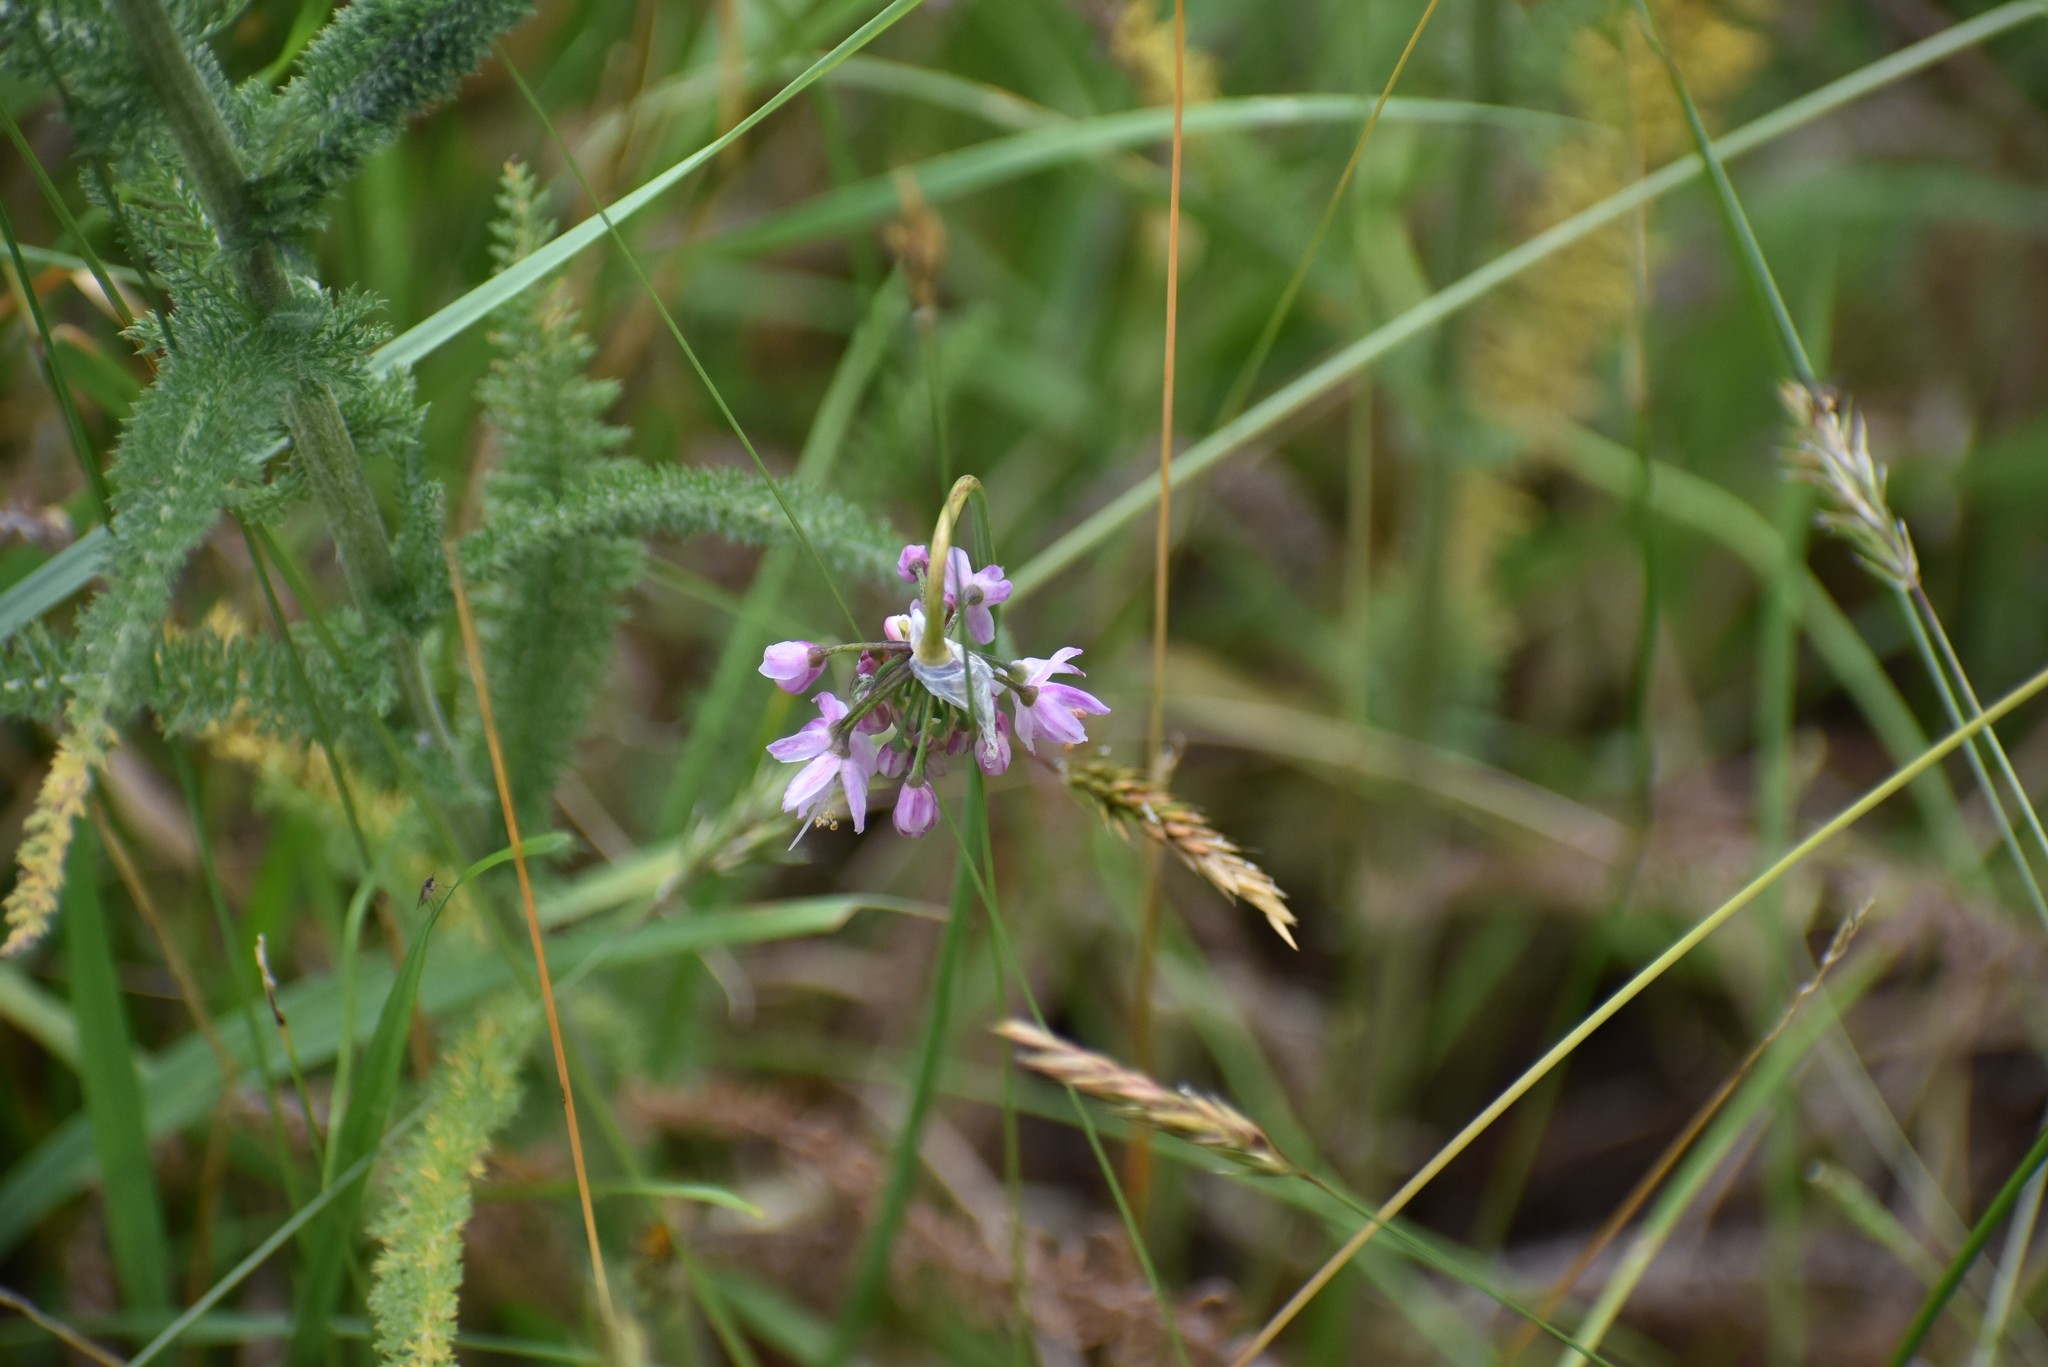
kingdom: Plantae
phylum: Tracheophyta
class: Liliopsida
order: Asparagales
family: Amaryllidaceae
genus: Allium
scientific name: Allium cernuum
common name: Nodding onion
